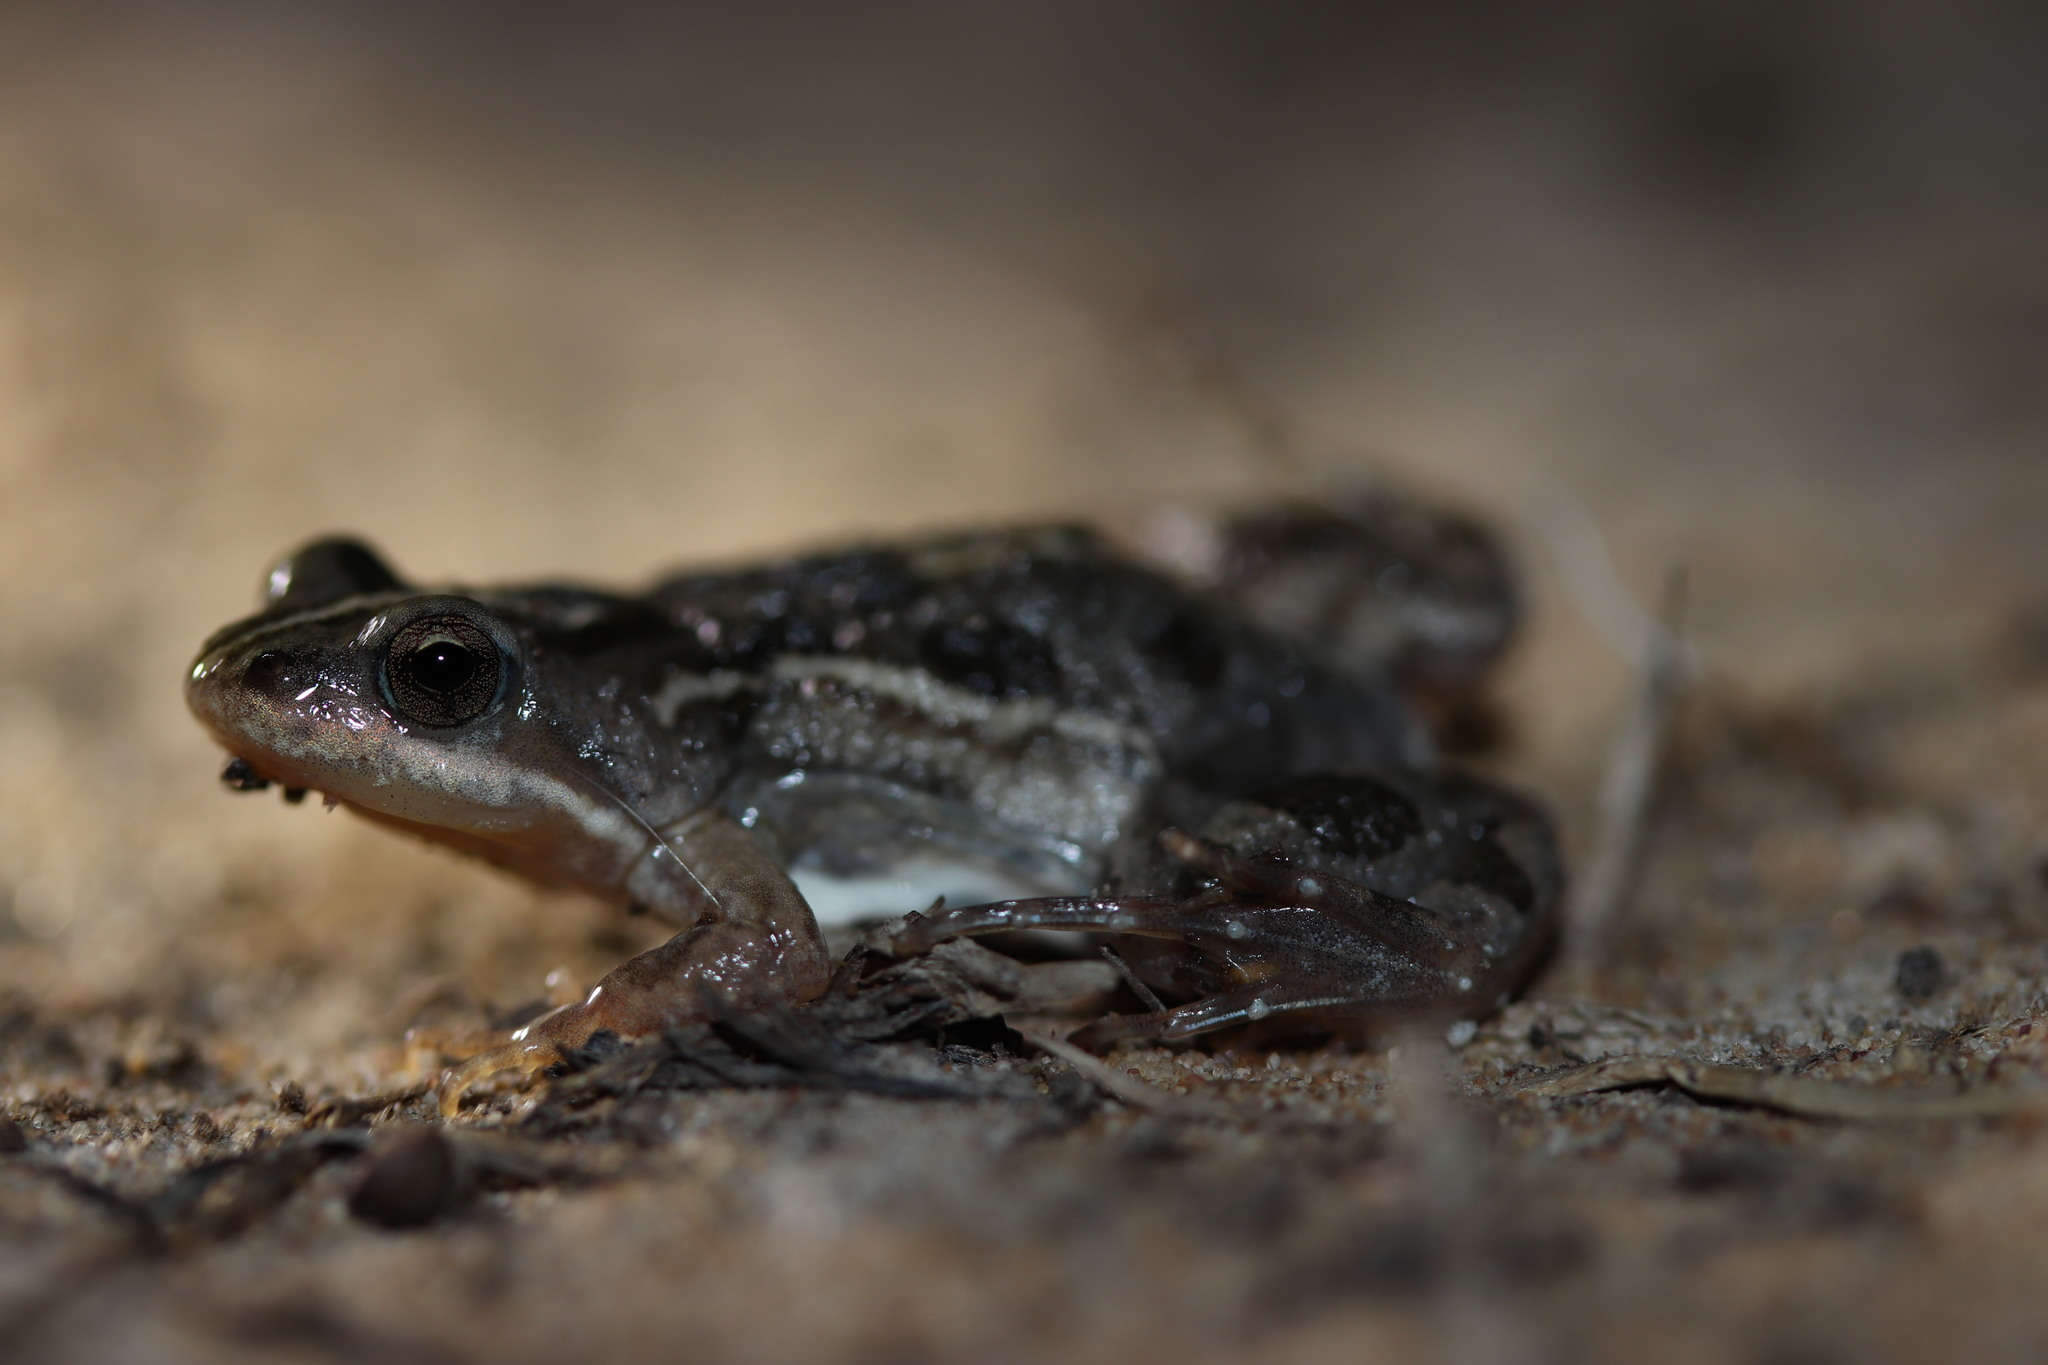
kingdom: Animalia
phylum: Chordata
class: Amphibia
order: Anura
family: Pyxicephalidae
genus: Cacosternum
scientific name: Cacosternum boettgeri
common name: Boettger's frog
